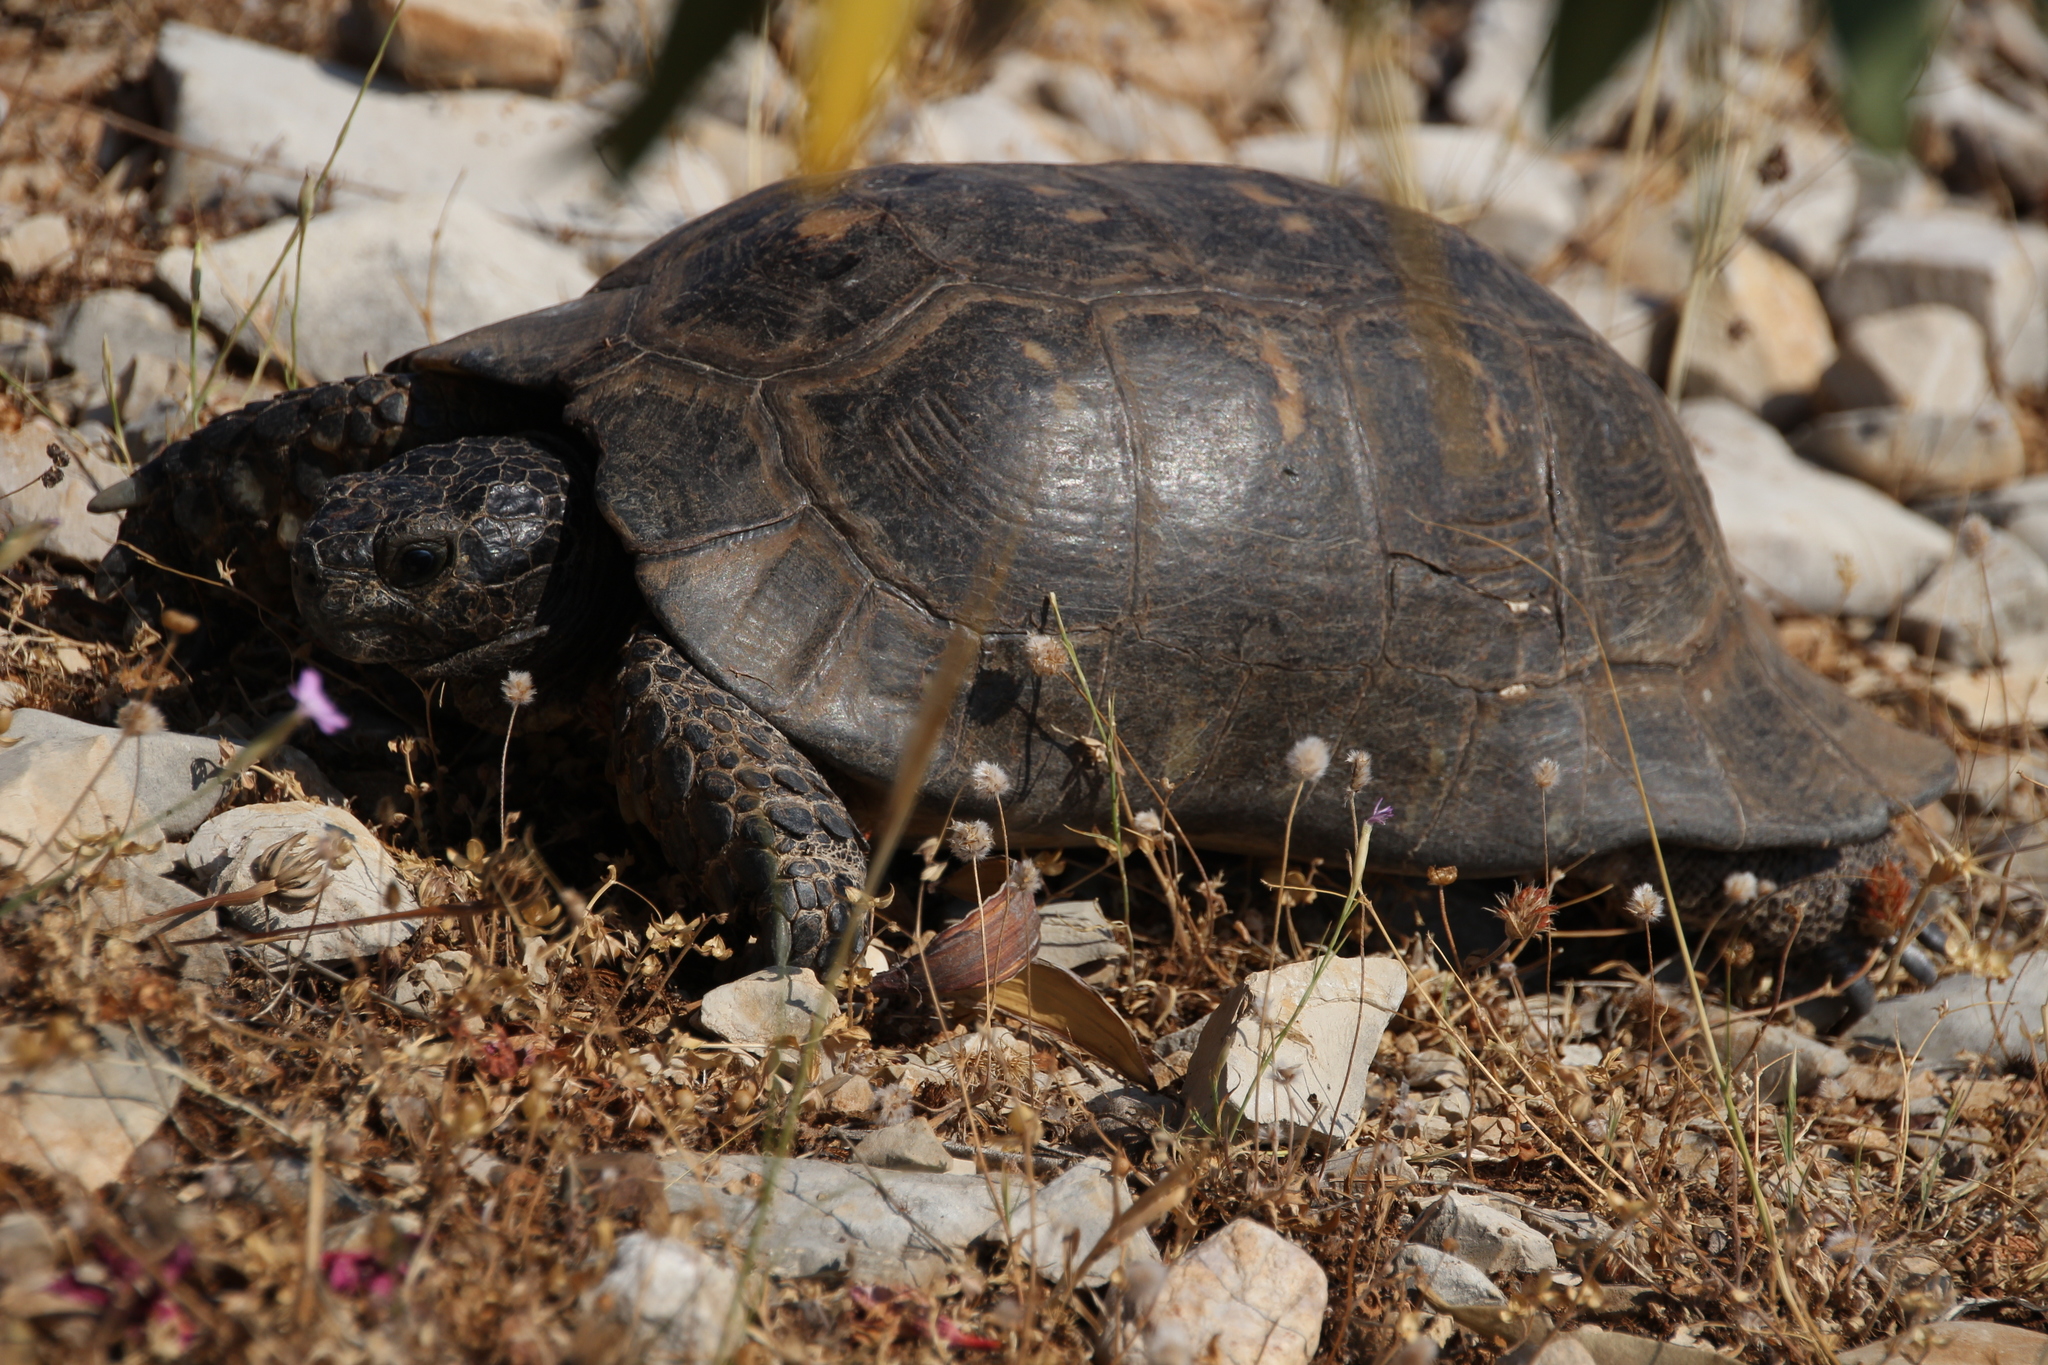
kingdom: Animalia
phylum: Chordata
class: Testudines
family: Testudinidae
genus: Testudo
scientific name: Testudo marginata
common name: Marginated tortoise
